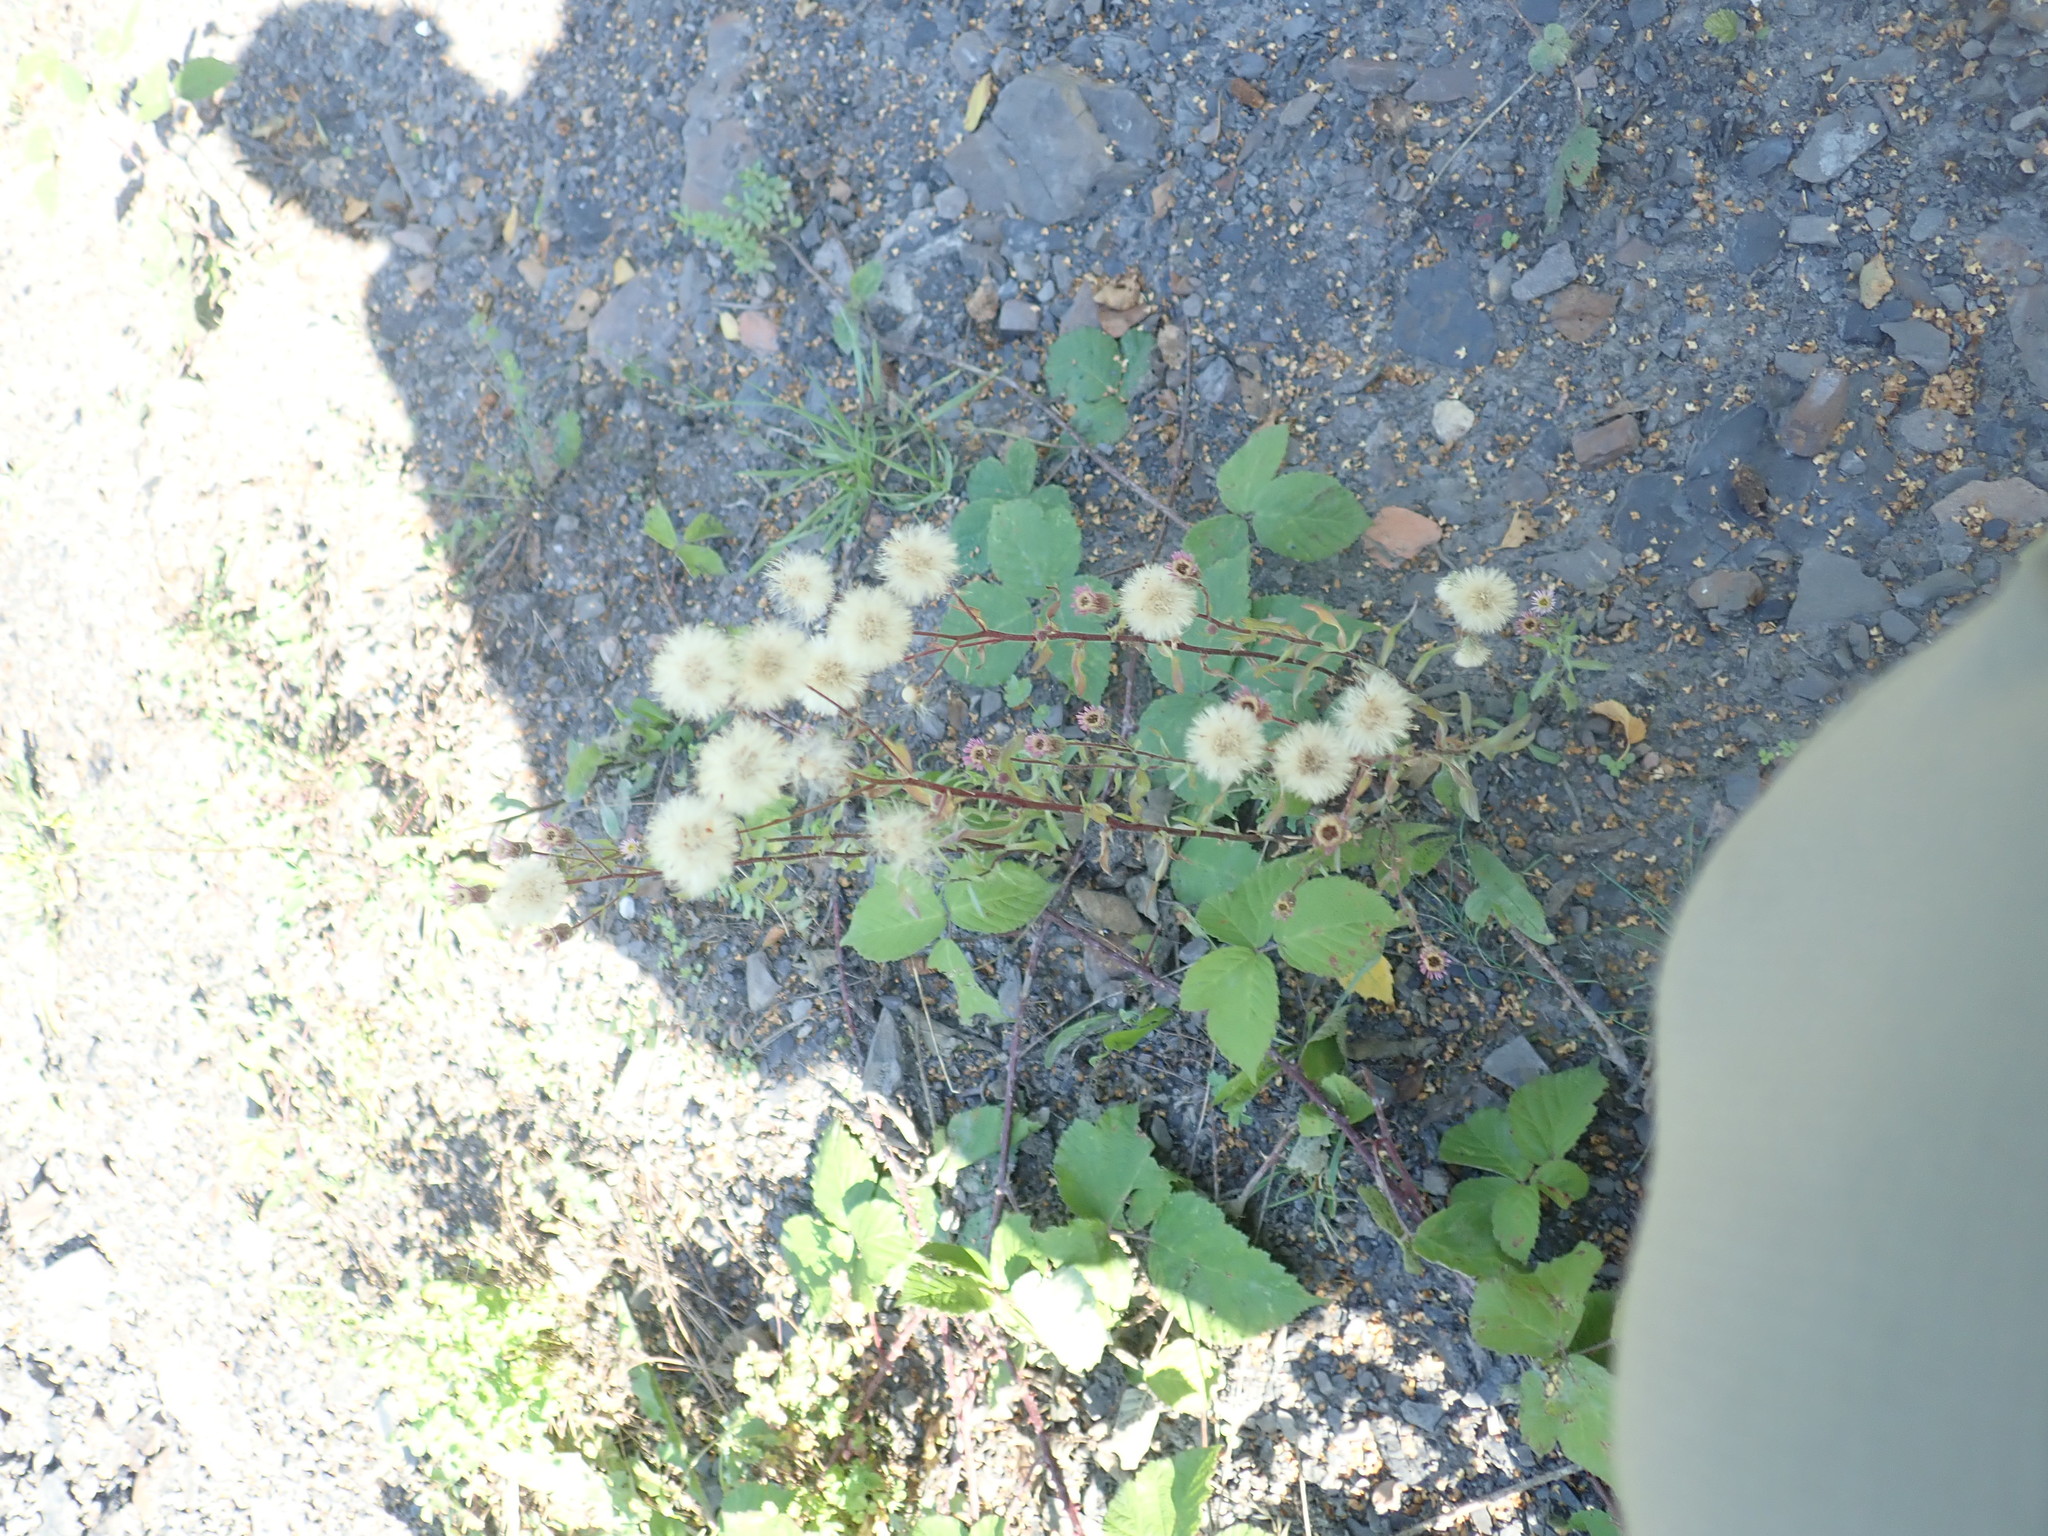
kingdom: Plantae
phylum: Tracheophyta
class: Magnoliopsida
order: Asterales
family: Asteraceae
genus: Erigeron
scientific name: Erigeron acris
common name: Blue fleabane
